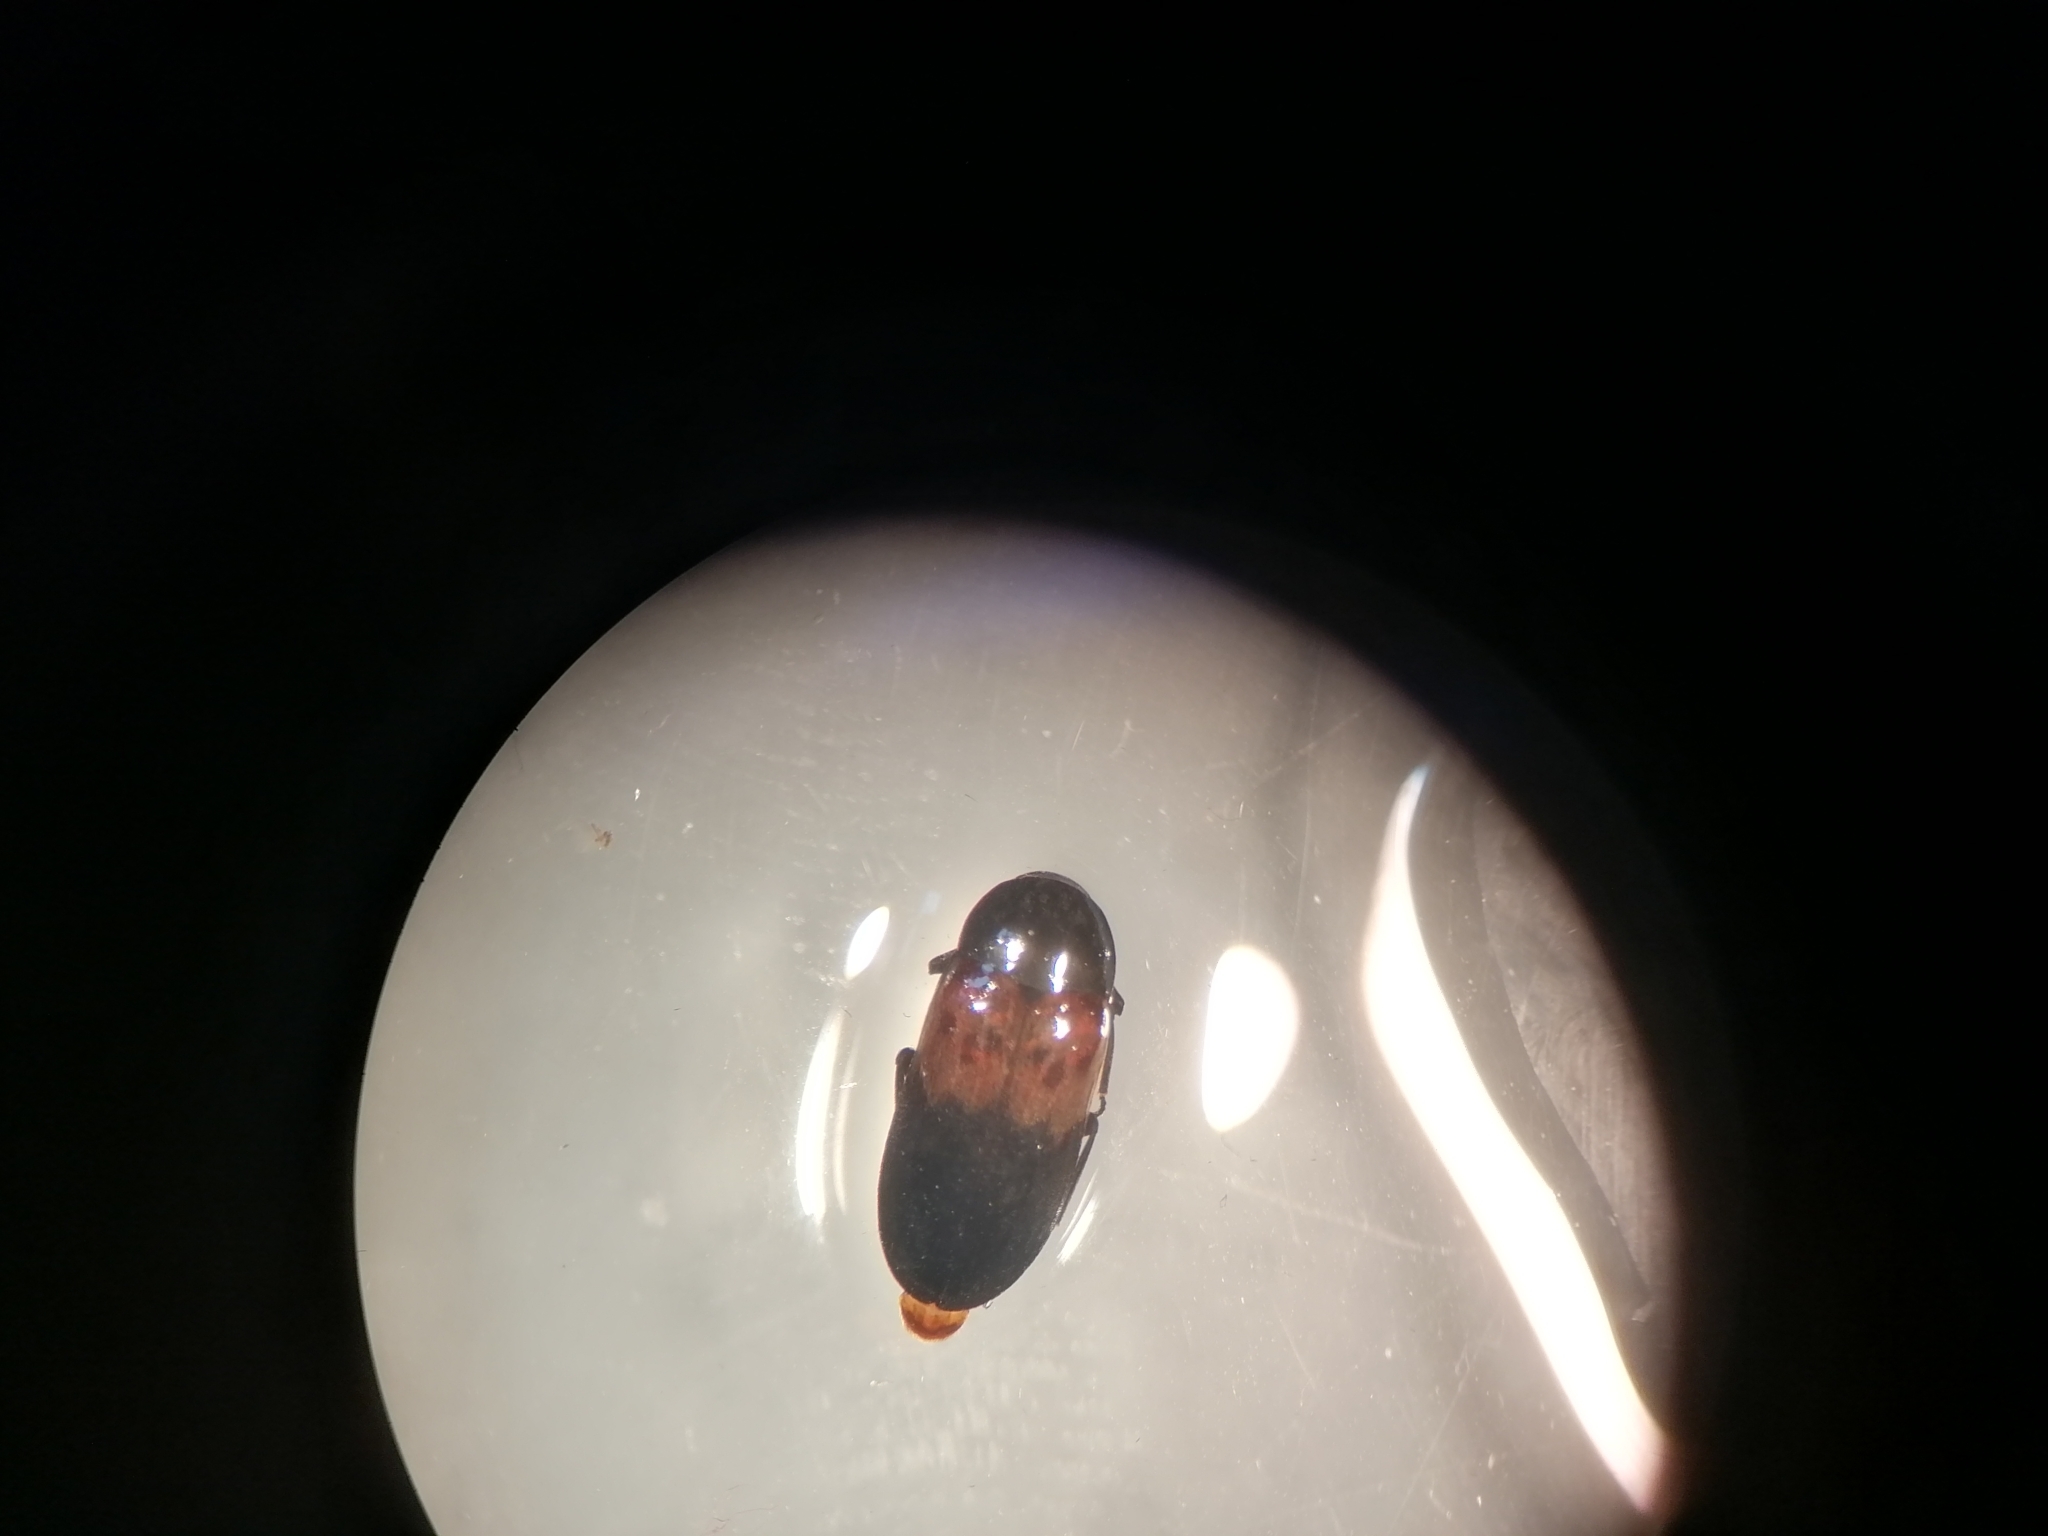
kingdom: Animalia
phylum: Arthropoda
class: Insecta
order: Coleoptera
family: Dermestidae
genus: Dermestes
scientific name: Dermestes lardarius
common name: Larder beetle
